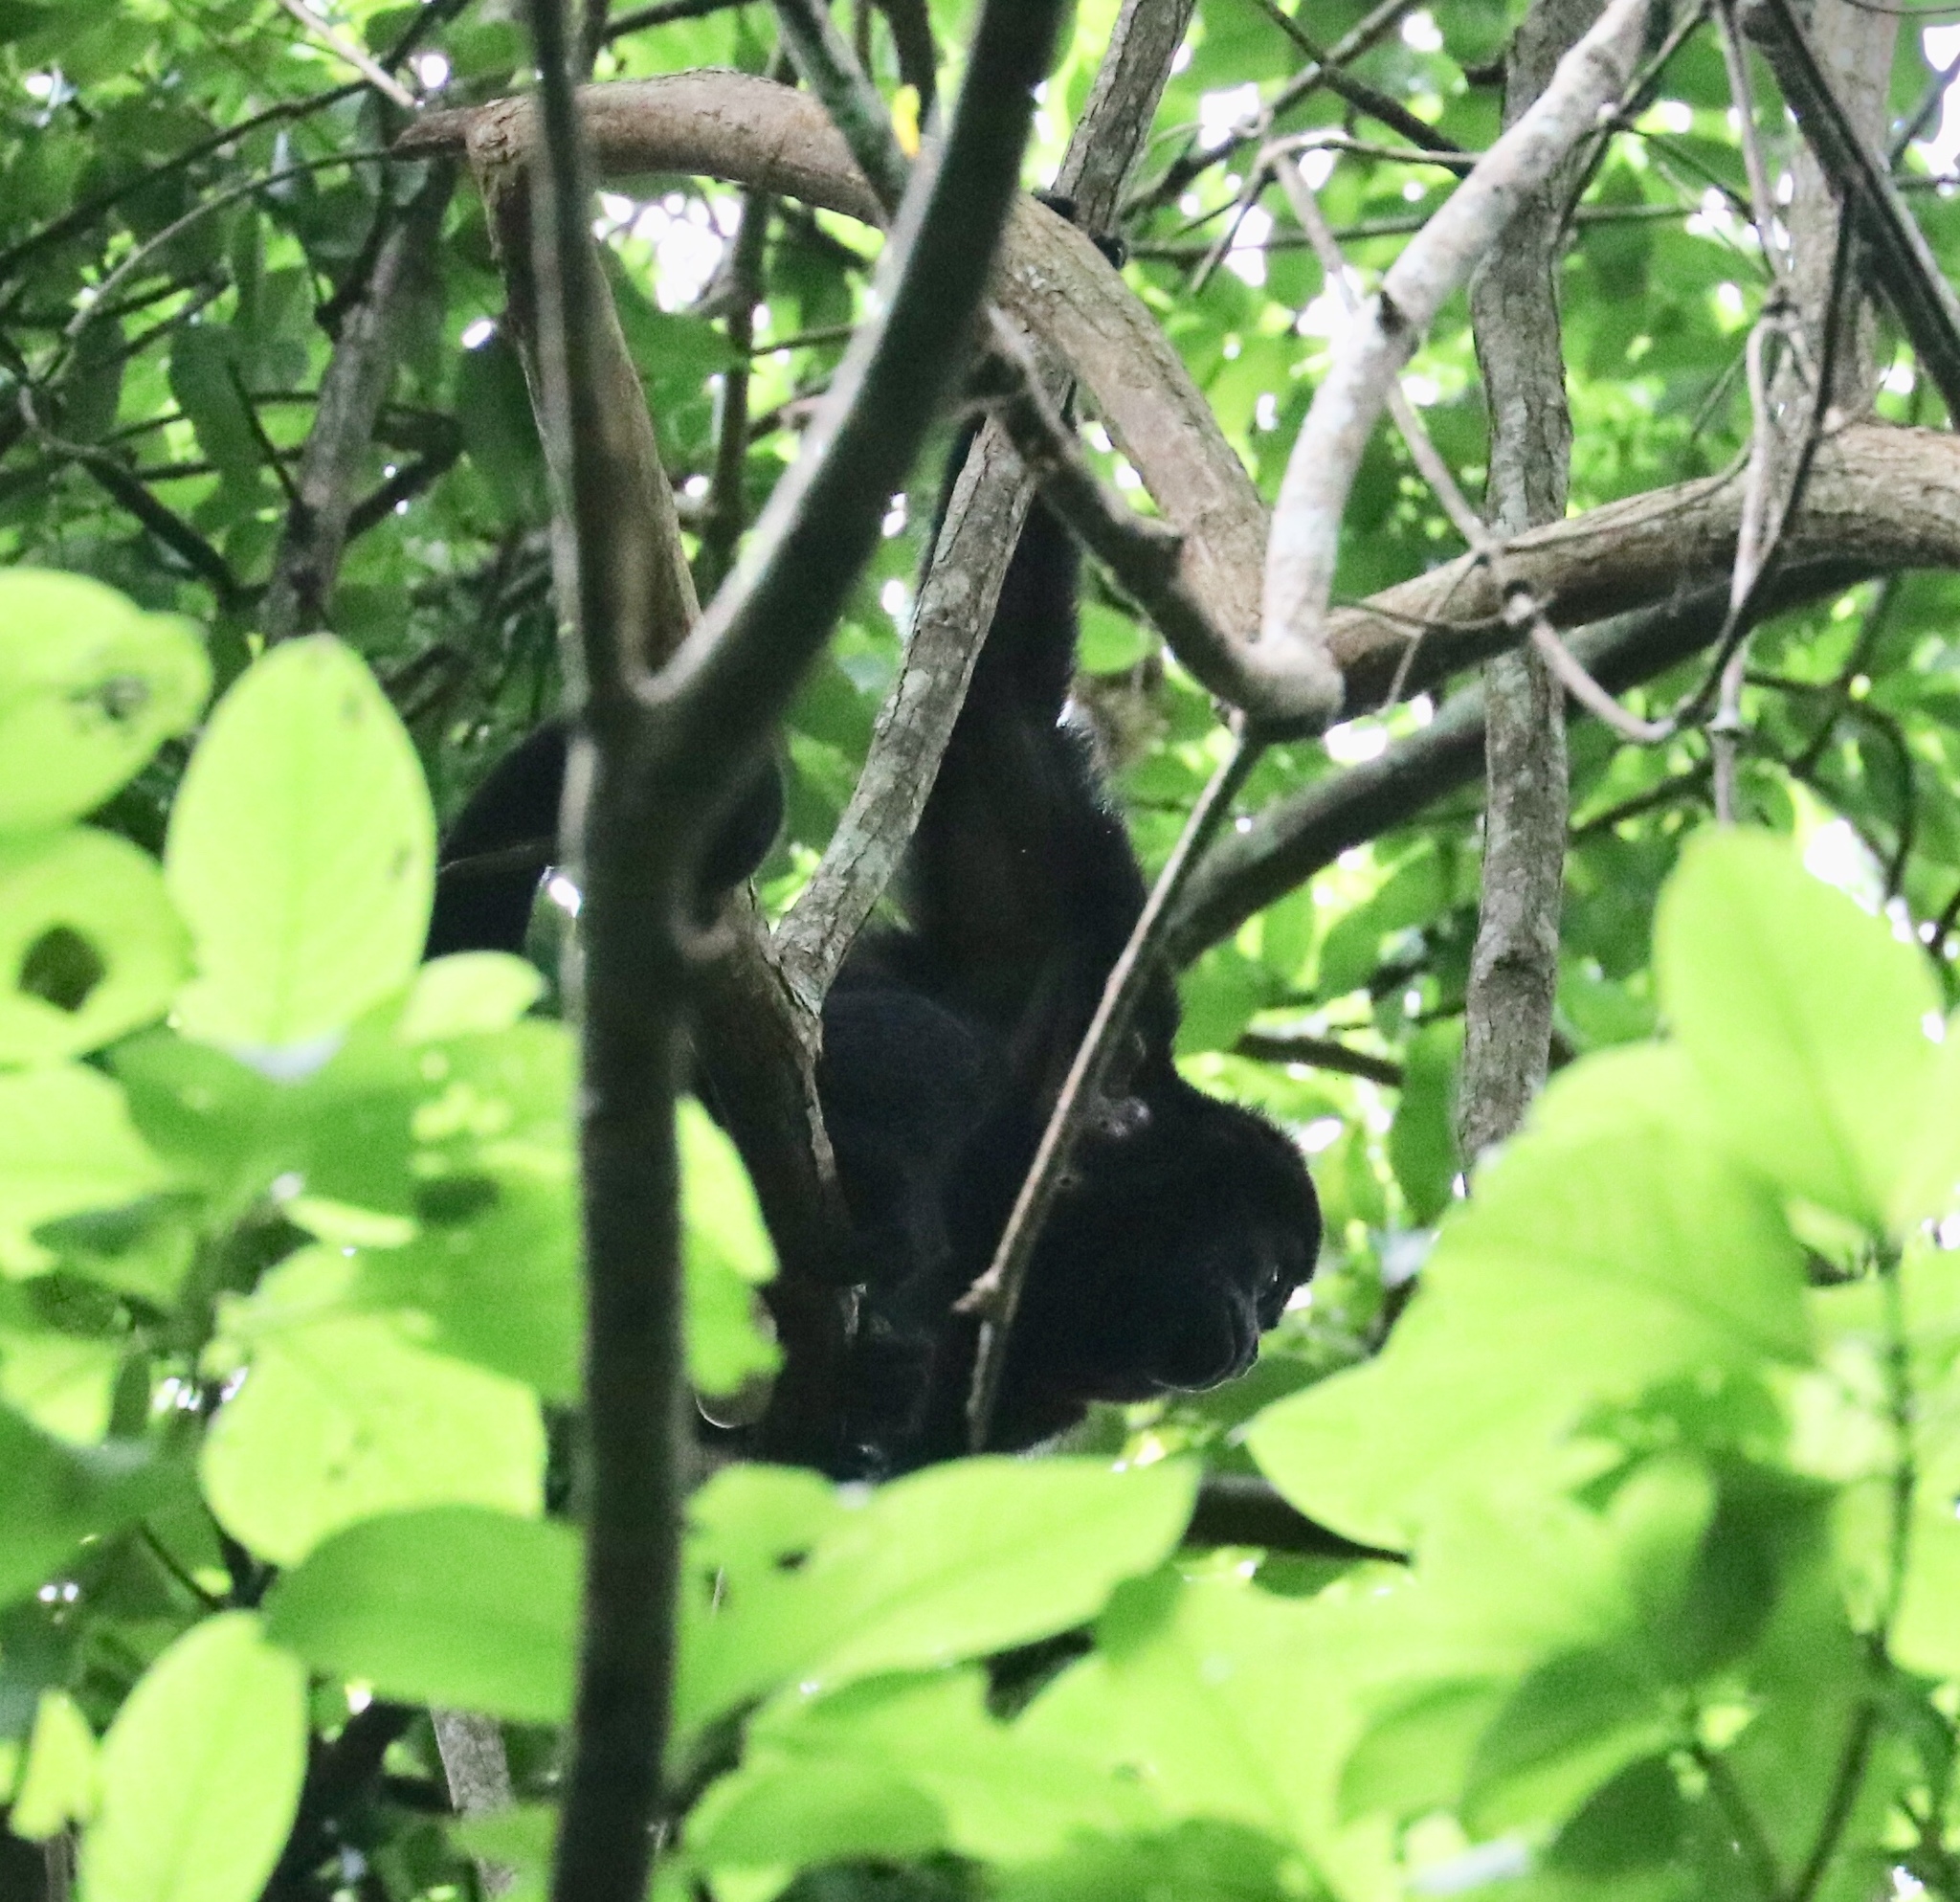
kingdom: Animalia
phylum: Chordata
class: Mammalia
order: Primates
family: Atelidae
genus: Alouatta
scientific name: Alouatta palliata
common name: Mantled howler
